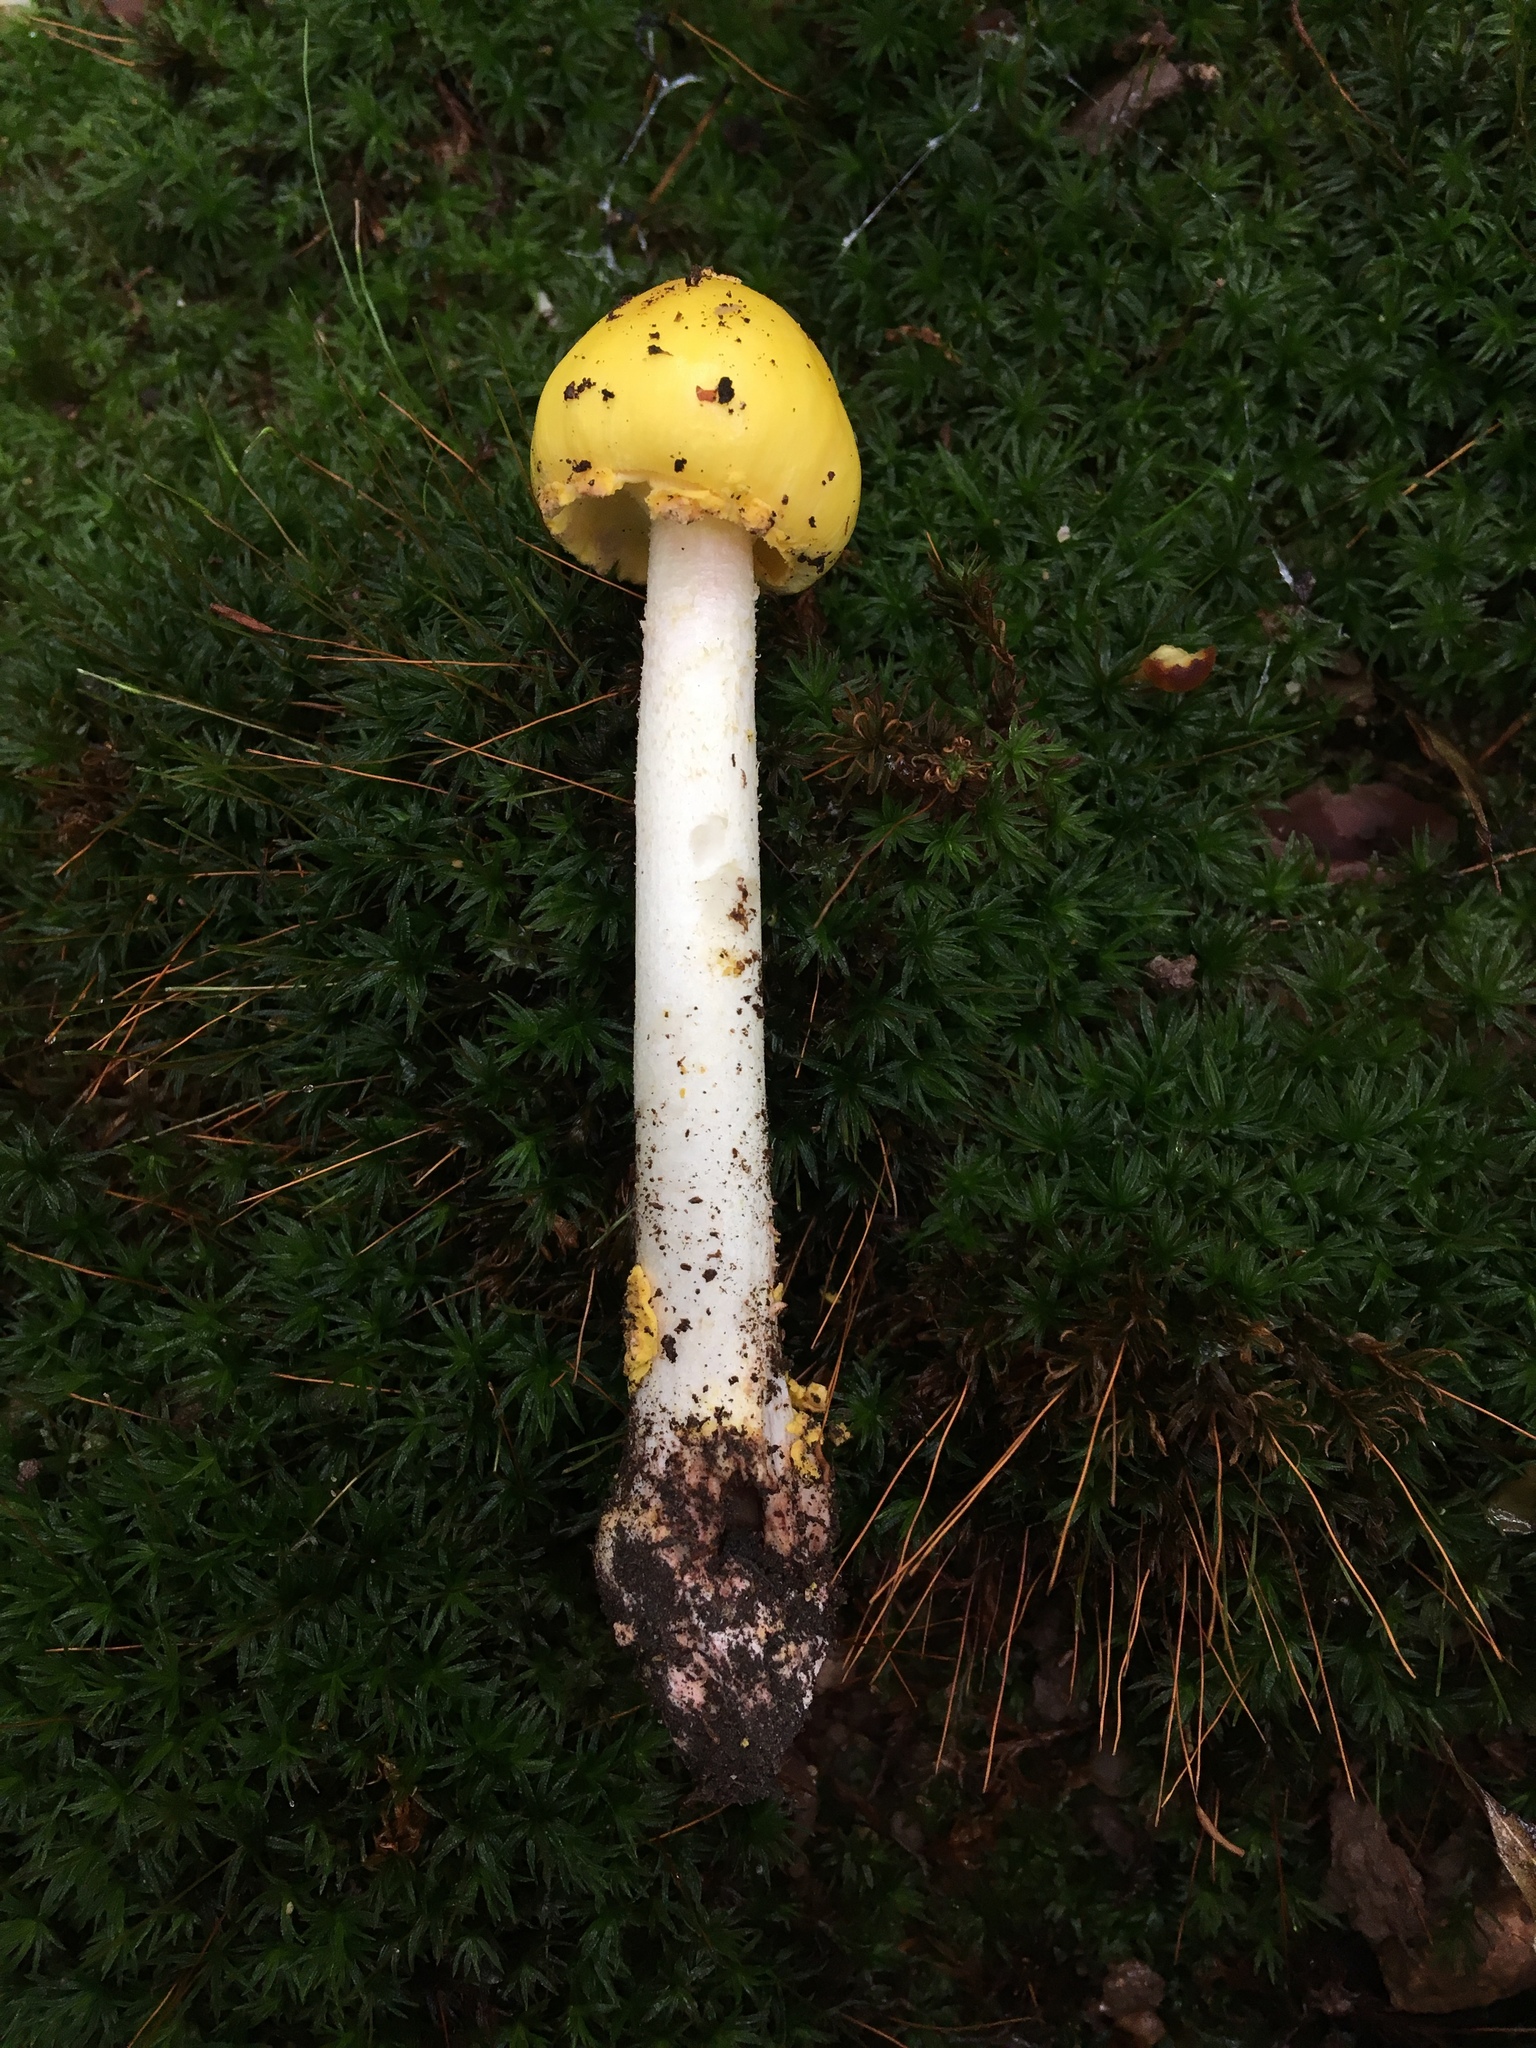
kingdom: Fungi
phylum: Basidiomycota
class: Agaricomycetes
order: Agaricales
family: Amanitaceae
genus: Amanita
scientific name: Amanita elongata
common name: Peck's yellow dust amanita
